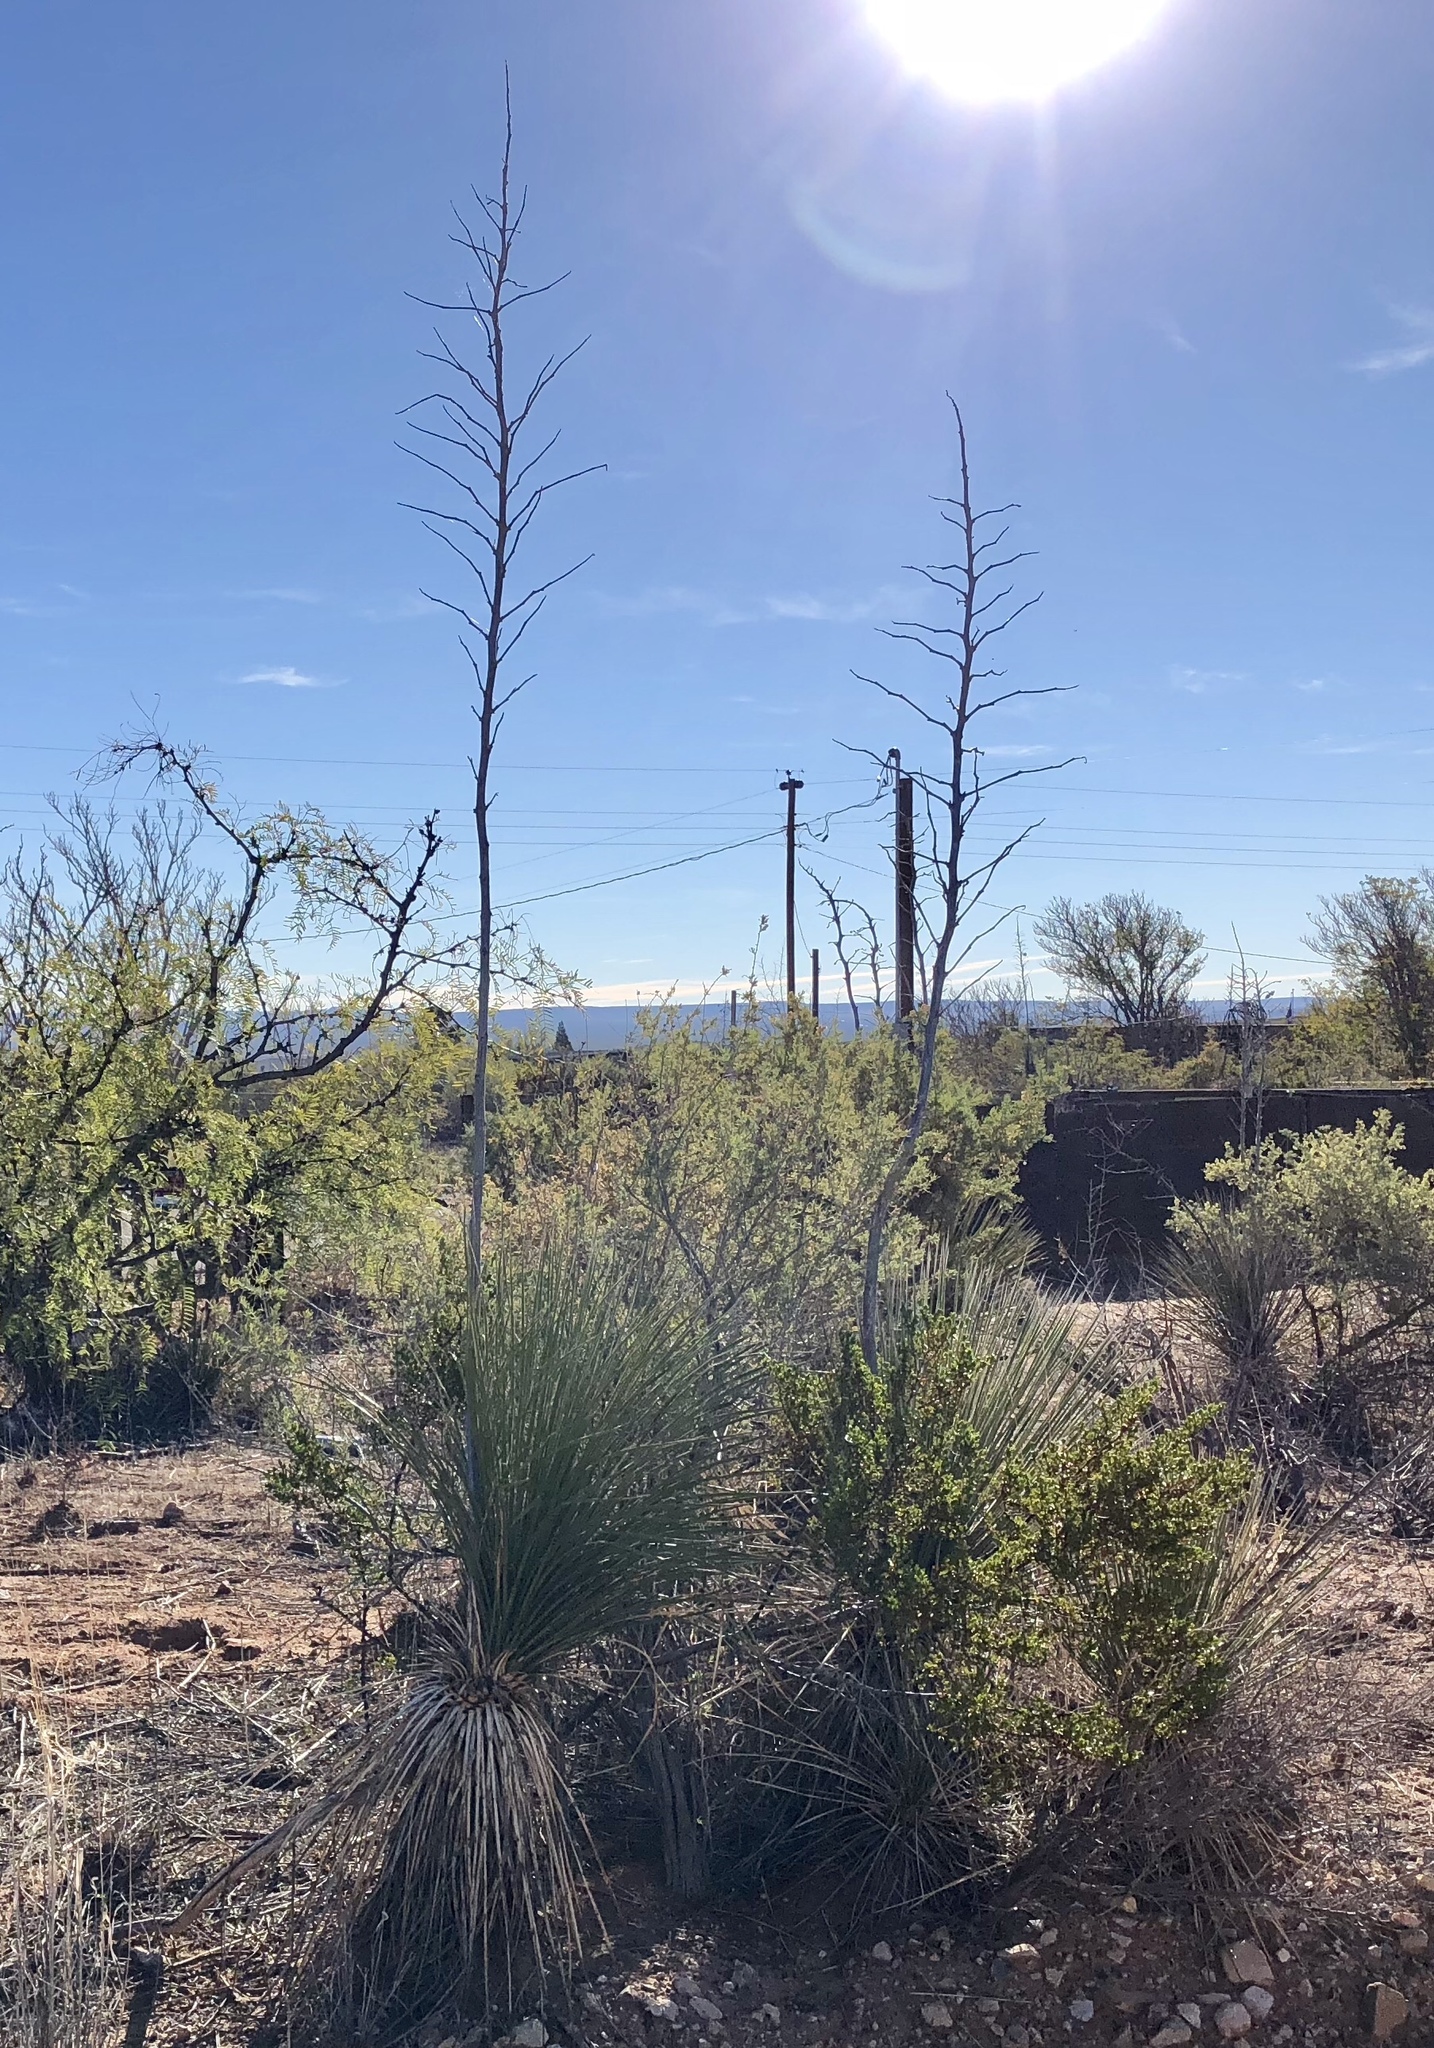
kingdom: Plantae
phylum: Tracheophyta
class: Liliopsida
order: Asparagales
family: Asparagaceae
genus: Yucca
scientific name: Yucca elata
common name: Palmella
